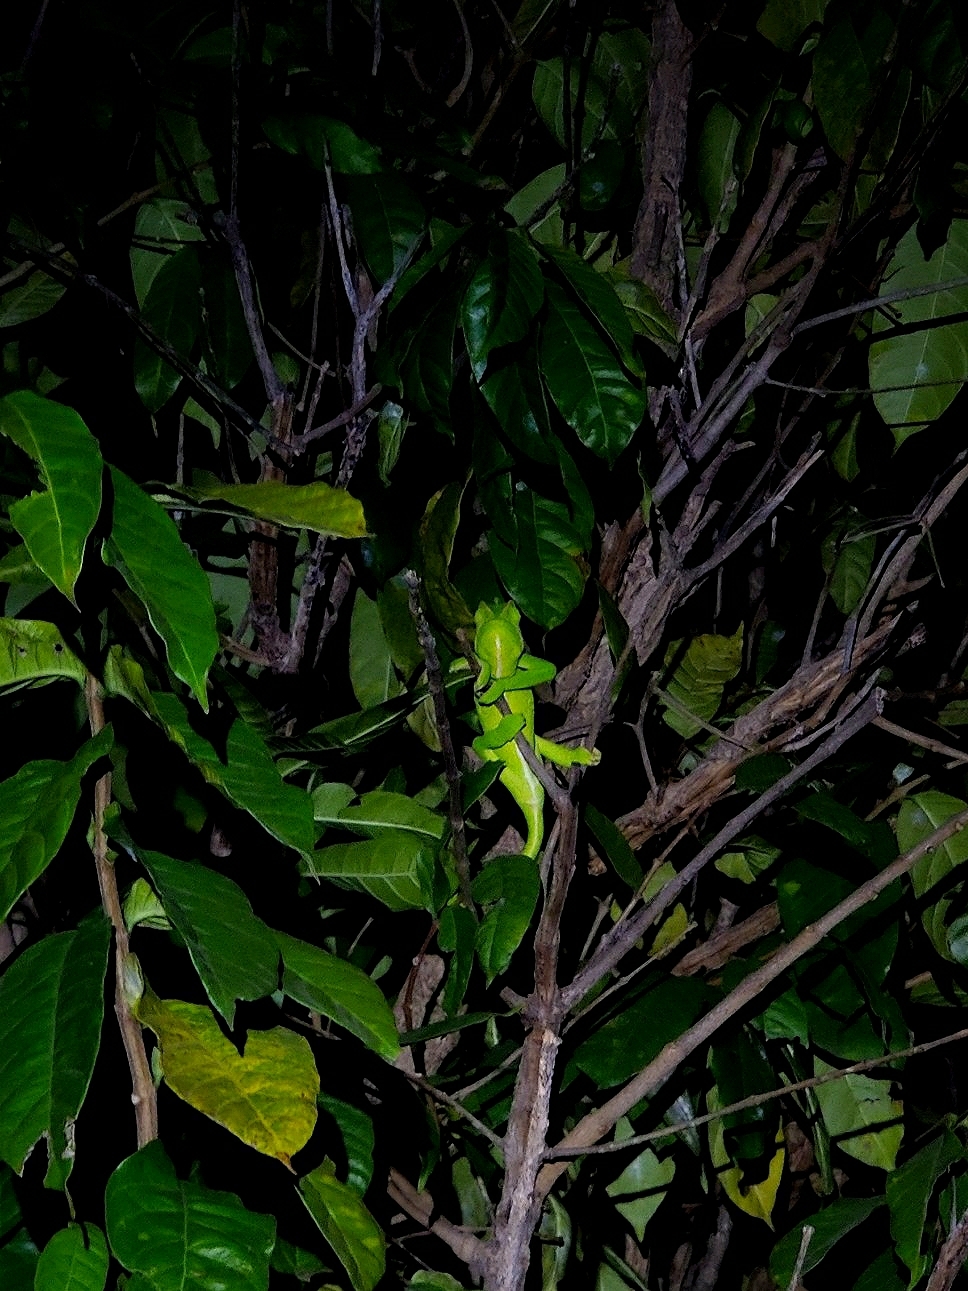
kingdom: Animalia
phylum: Chordata
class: Squamata
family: Chamaeleonidae
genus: Chamaeleo
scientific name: Chamaeleo zeylanicus
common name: Indian chameleon
